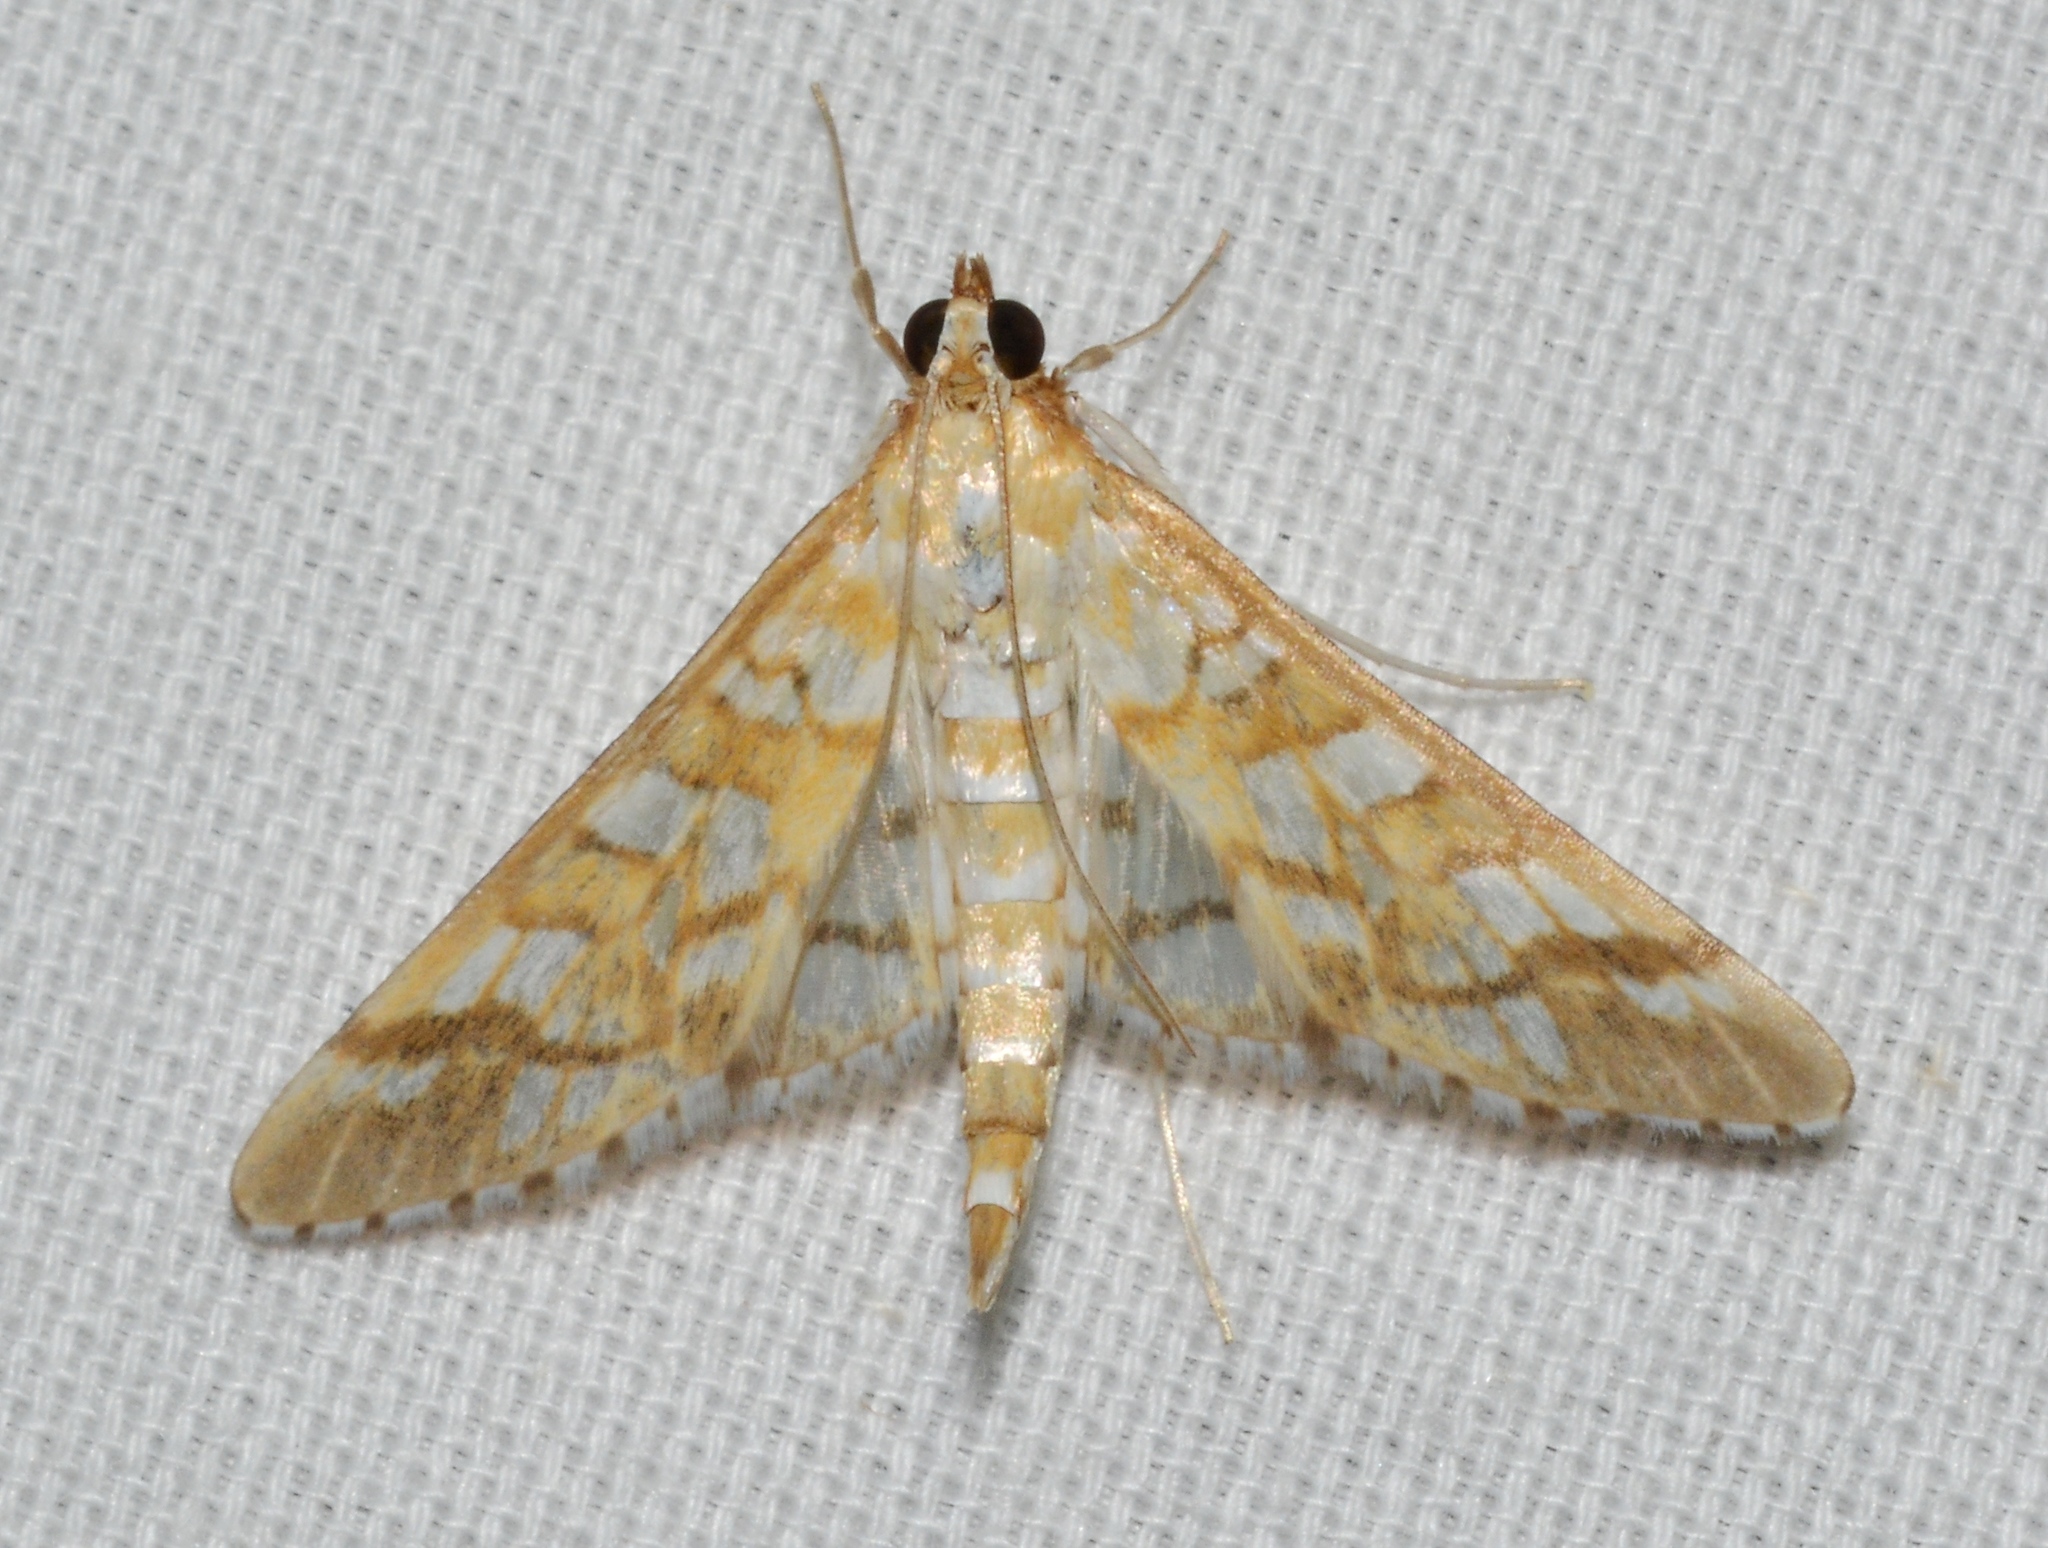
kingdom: Animalia
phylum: Arthropoda
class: Insecta
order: Lepidoptera
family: Crambidae
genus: Epipagis
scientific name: Epipagis fenestralis
